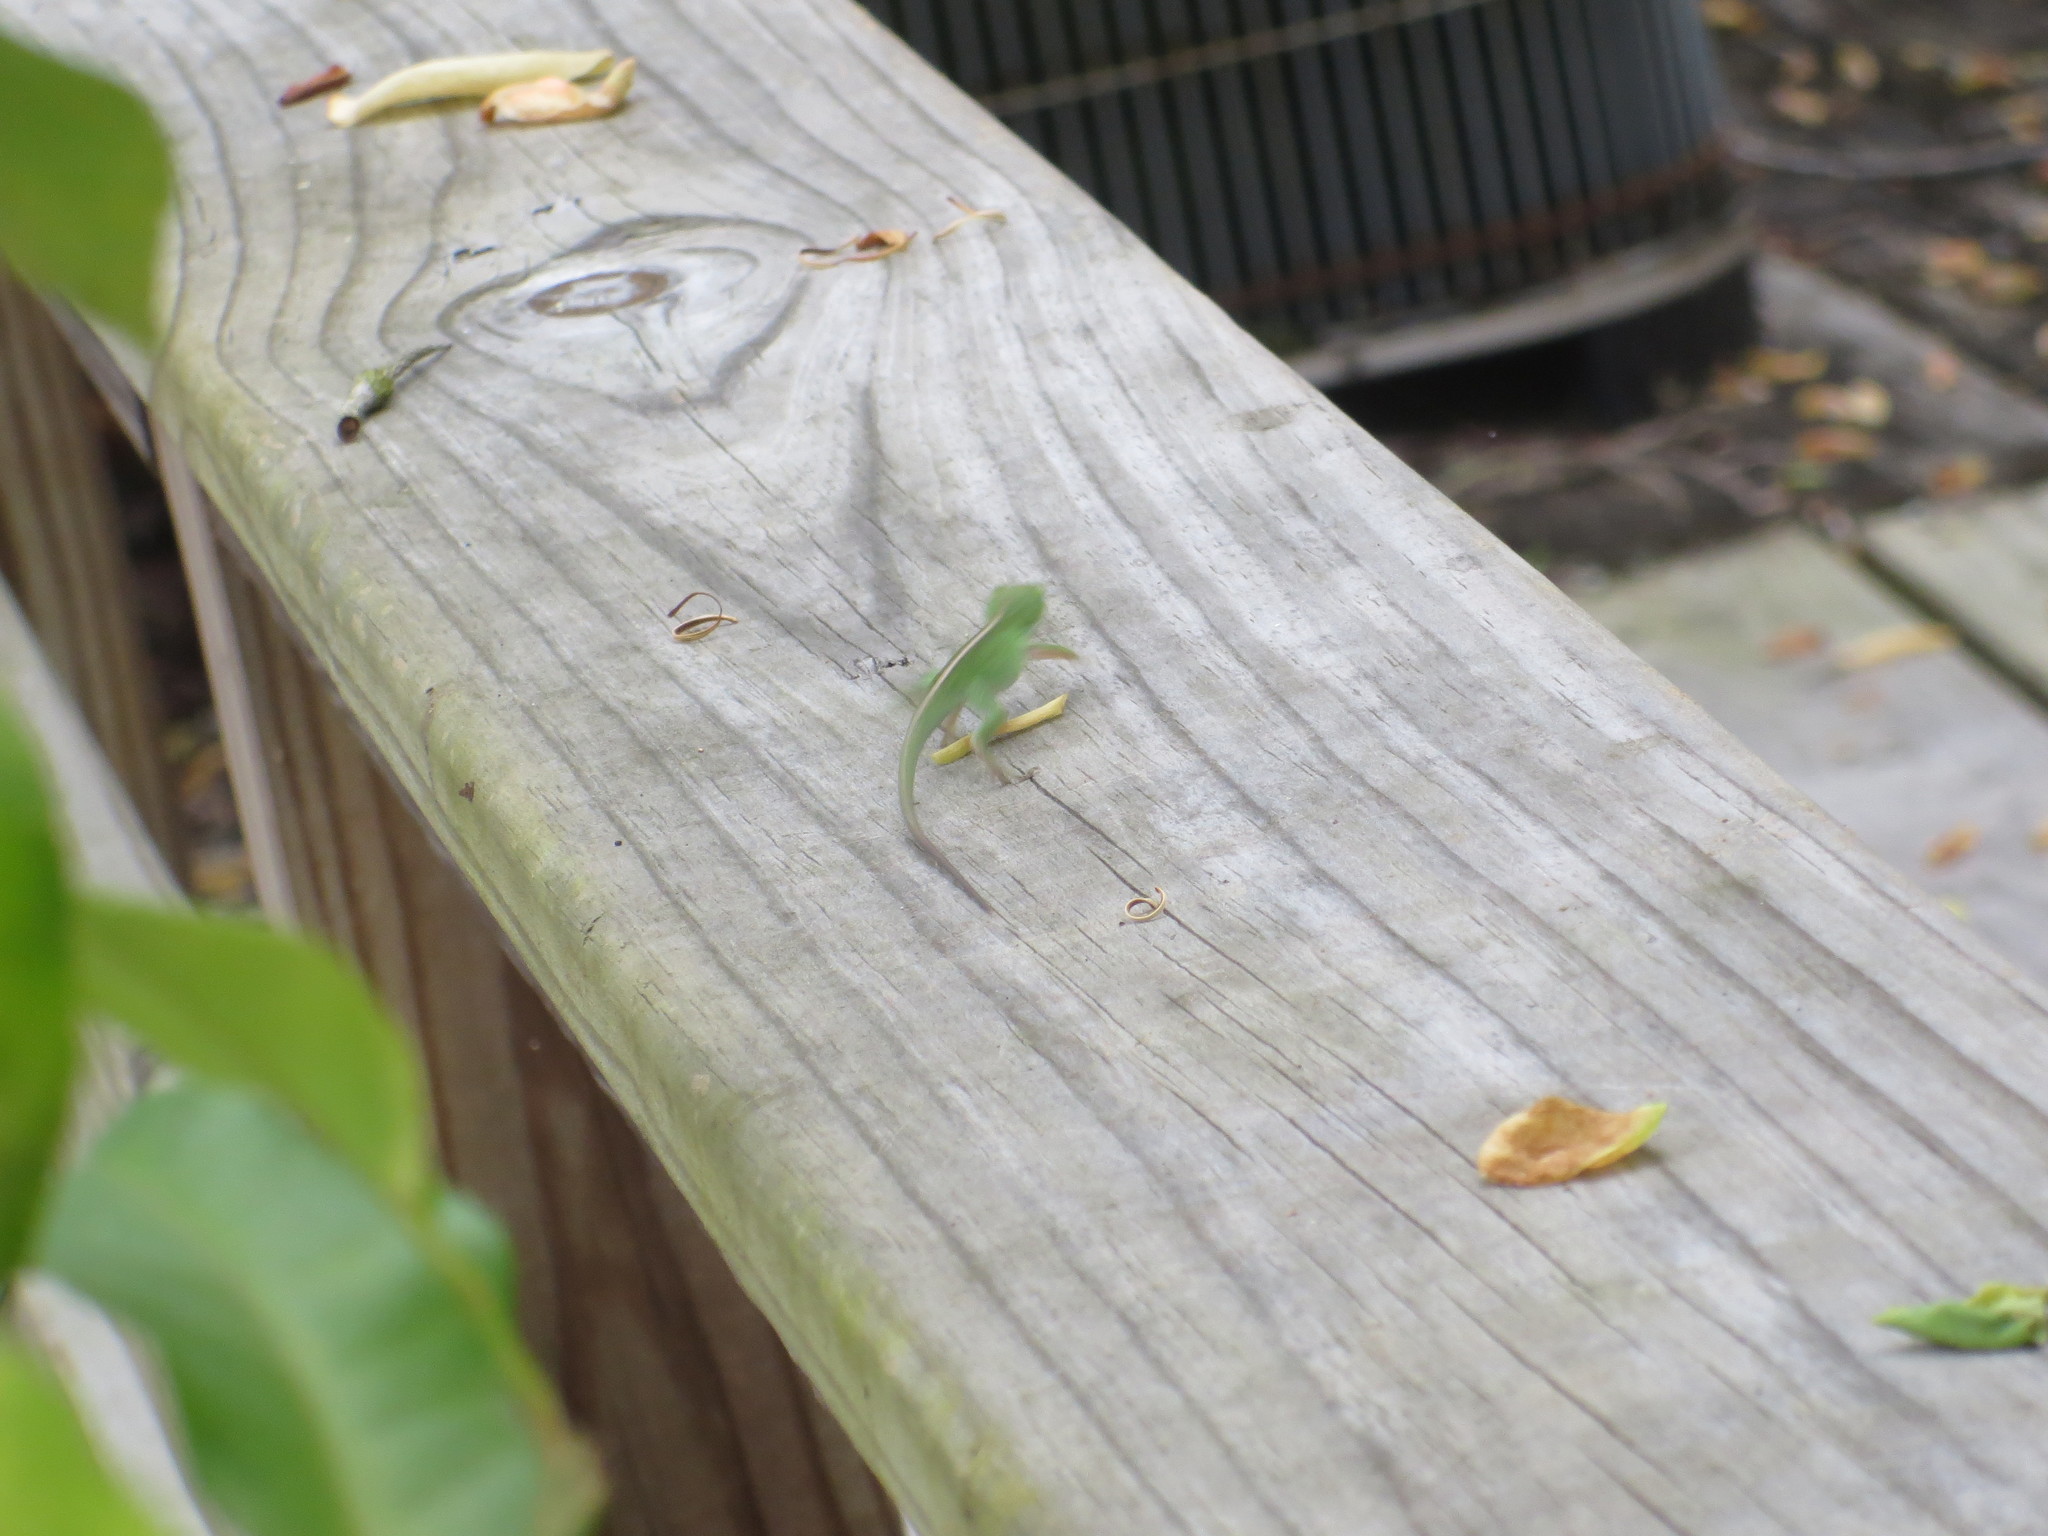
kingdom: Animalia
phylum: Chordata
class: Squamata
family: Dactyloidae
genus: Anolis
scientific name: Anolis carolinensis
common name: Green anole
